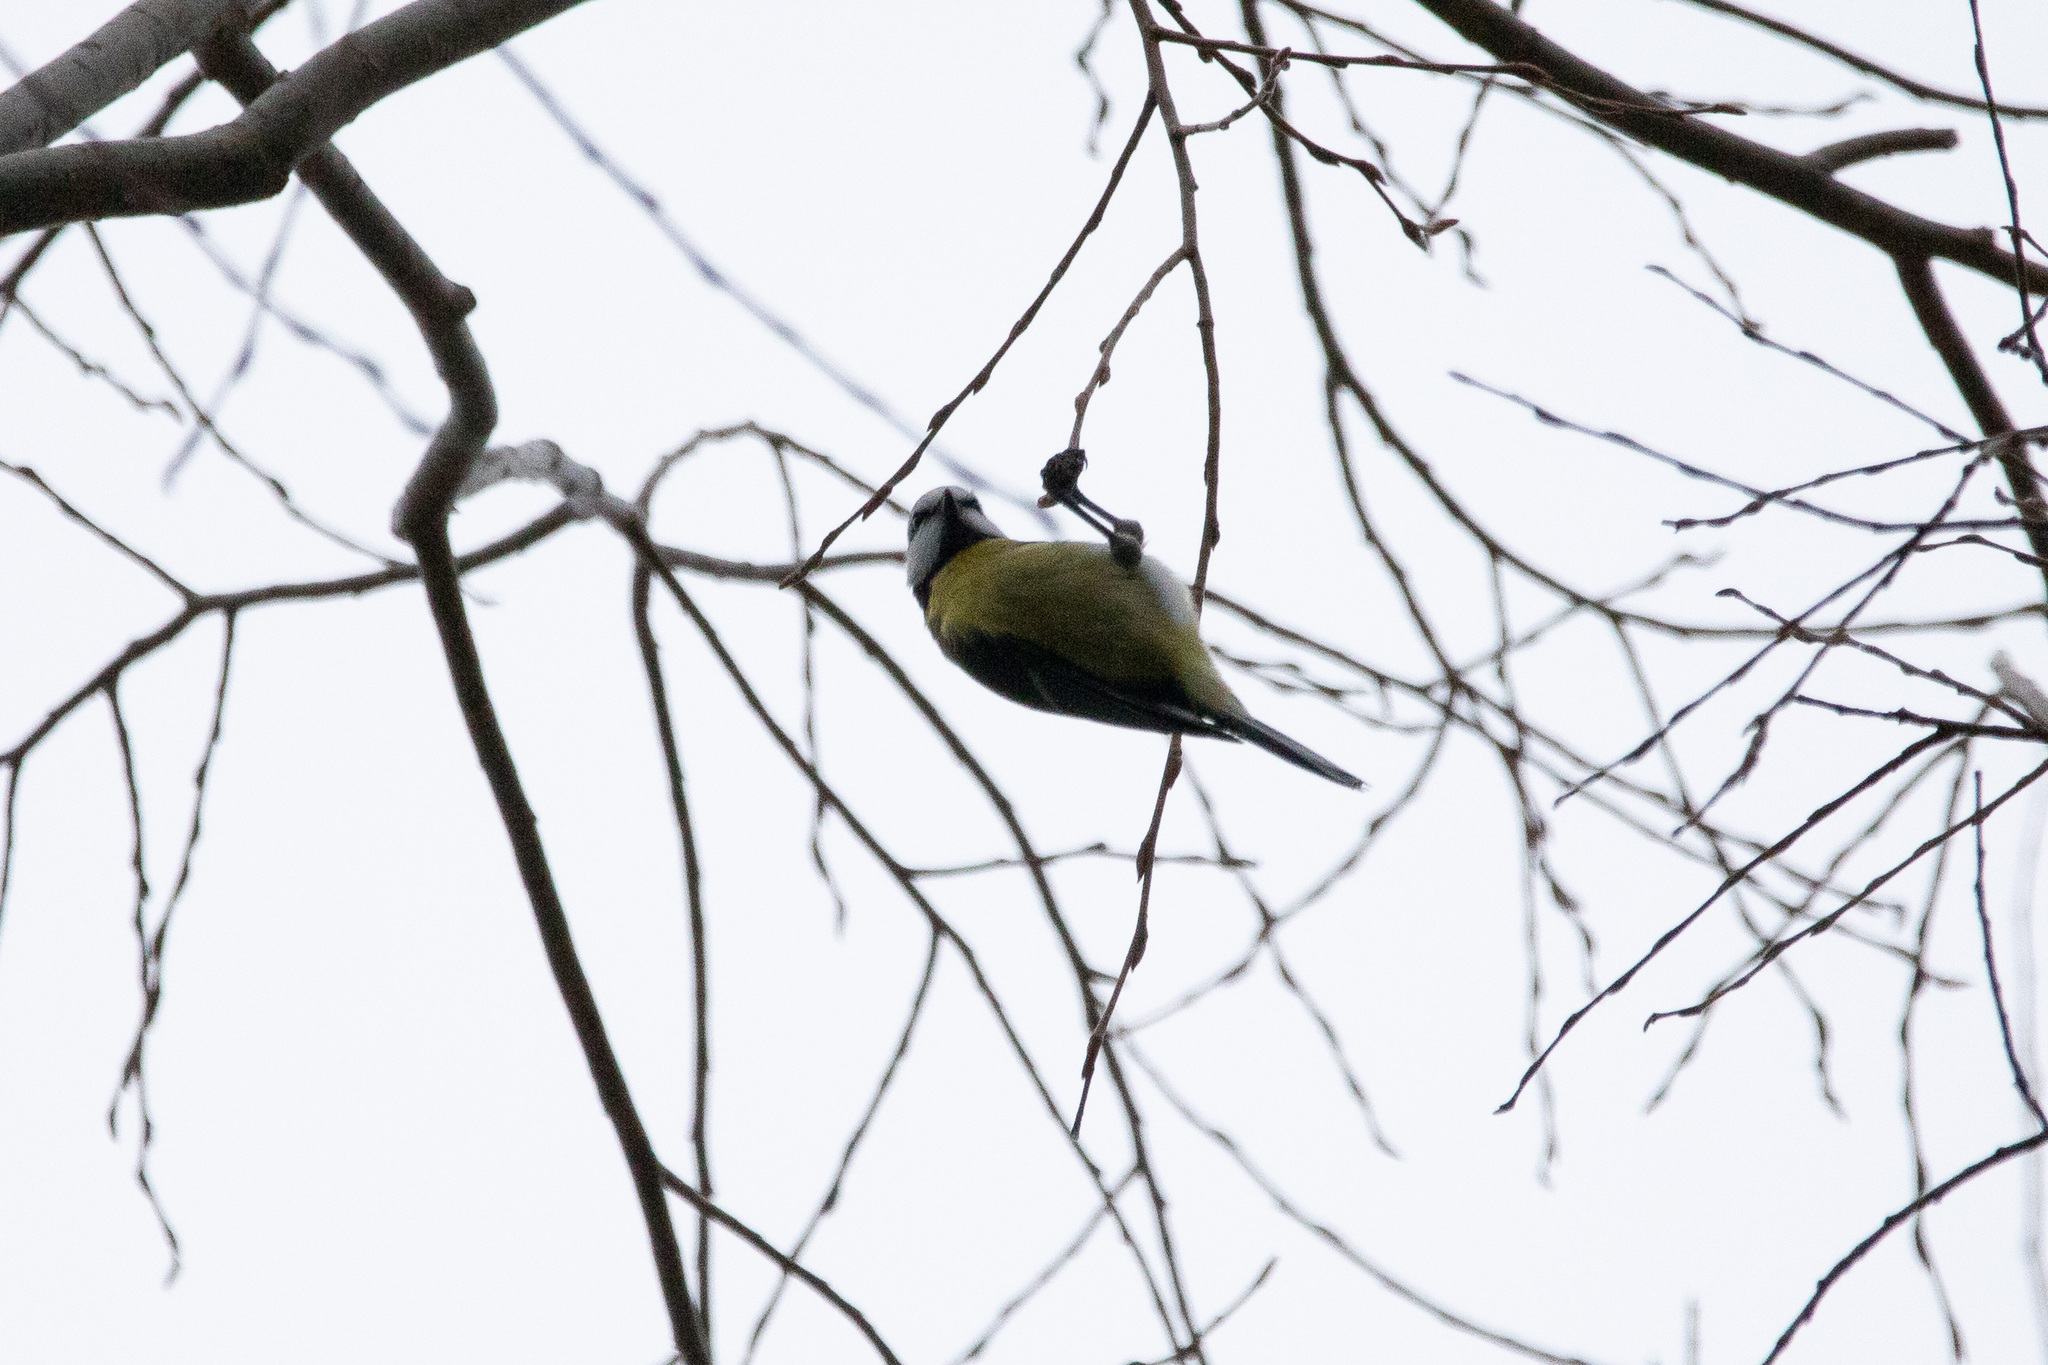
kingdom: Animalia
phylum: Chordata
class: Aves
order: Passeriformes
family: Paridae
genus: Cyanistes
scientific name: Cyanistes caeruleus
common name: Eurasian blue tit
